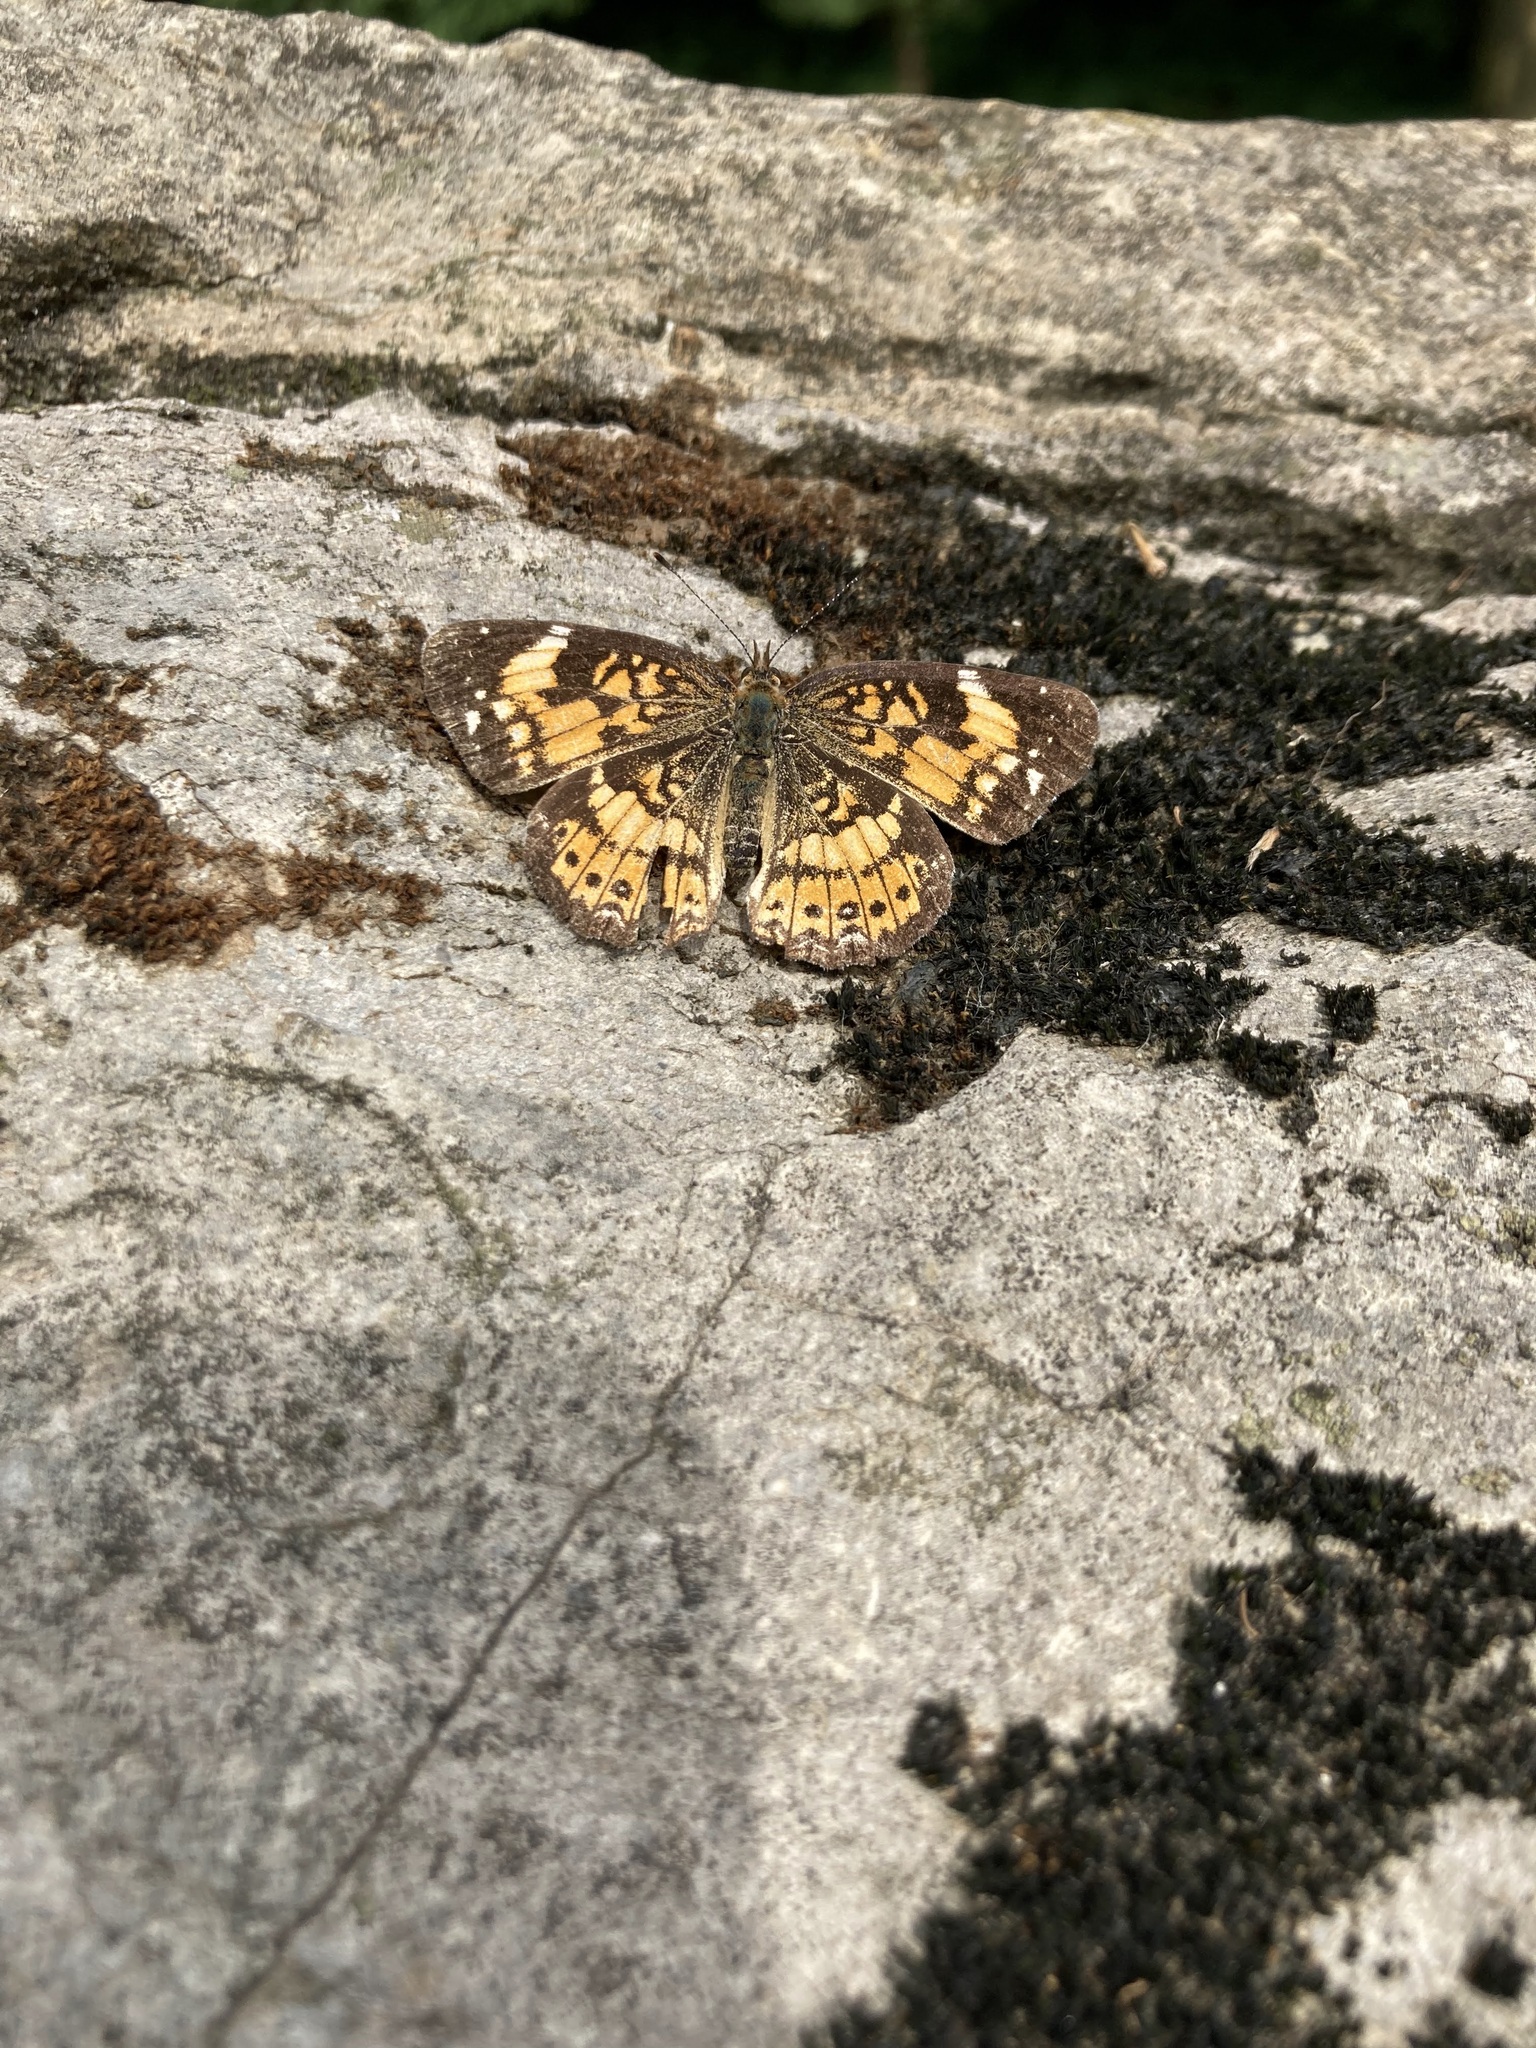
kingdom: Animalia
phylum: Arthropoda
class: Insecta
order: Lepidoptera
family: Nymphalidae
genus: Chlosyne
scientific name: Chlosyne nycteis
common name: Silvery checkerspot
